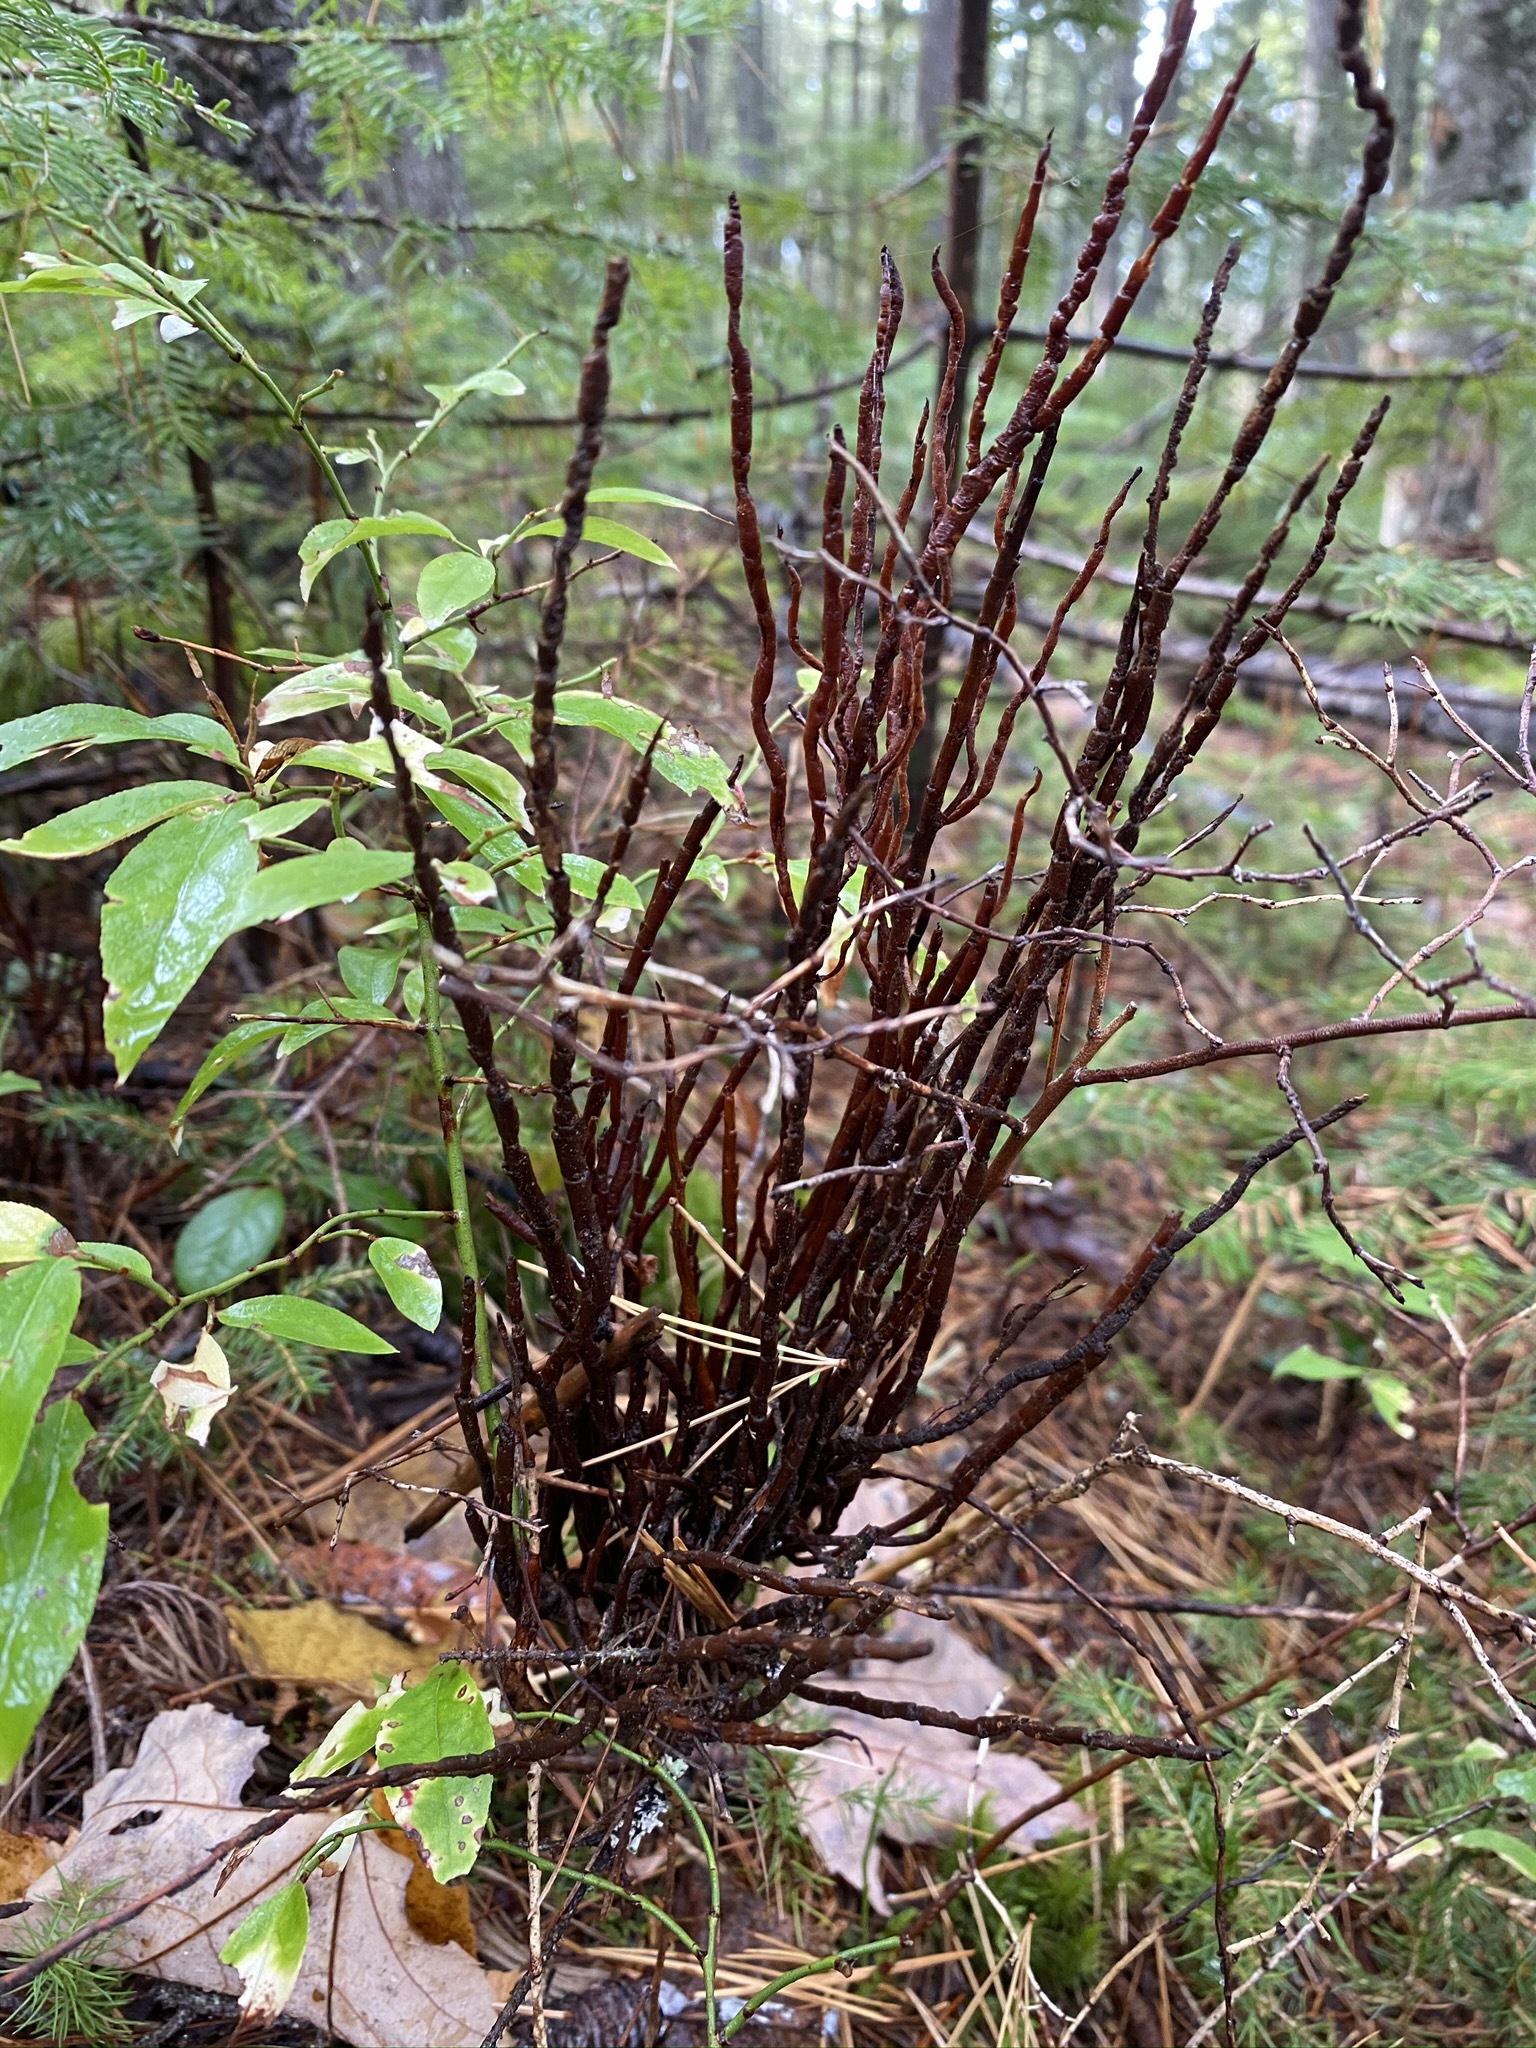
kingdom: Fungi
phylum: Basidiomycota
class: Pucciniomycetes
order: Pucciniales
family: Pucciniastraceae
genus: Calyptospora
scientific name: Calyptospora columnaris
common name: Huckleberry broom rust fungus
